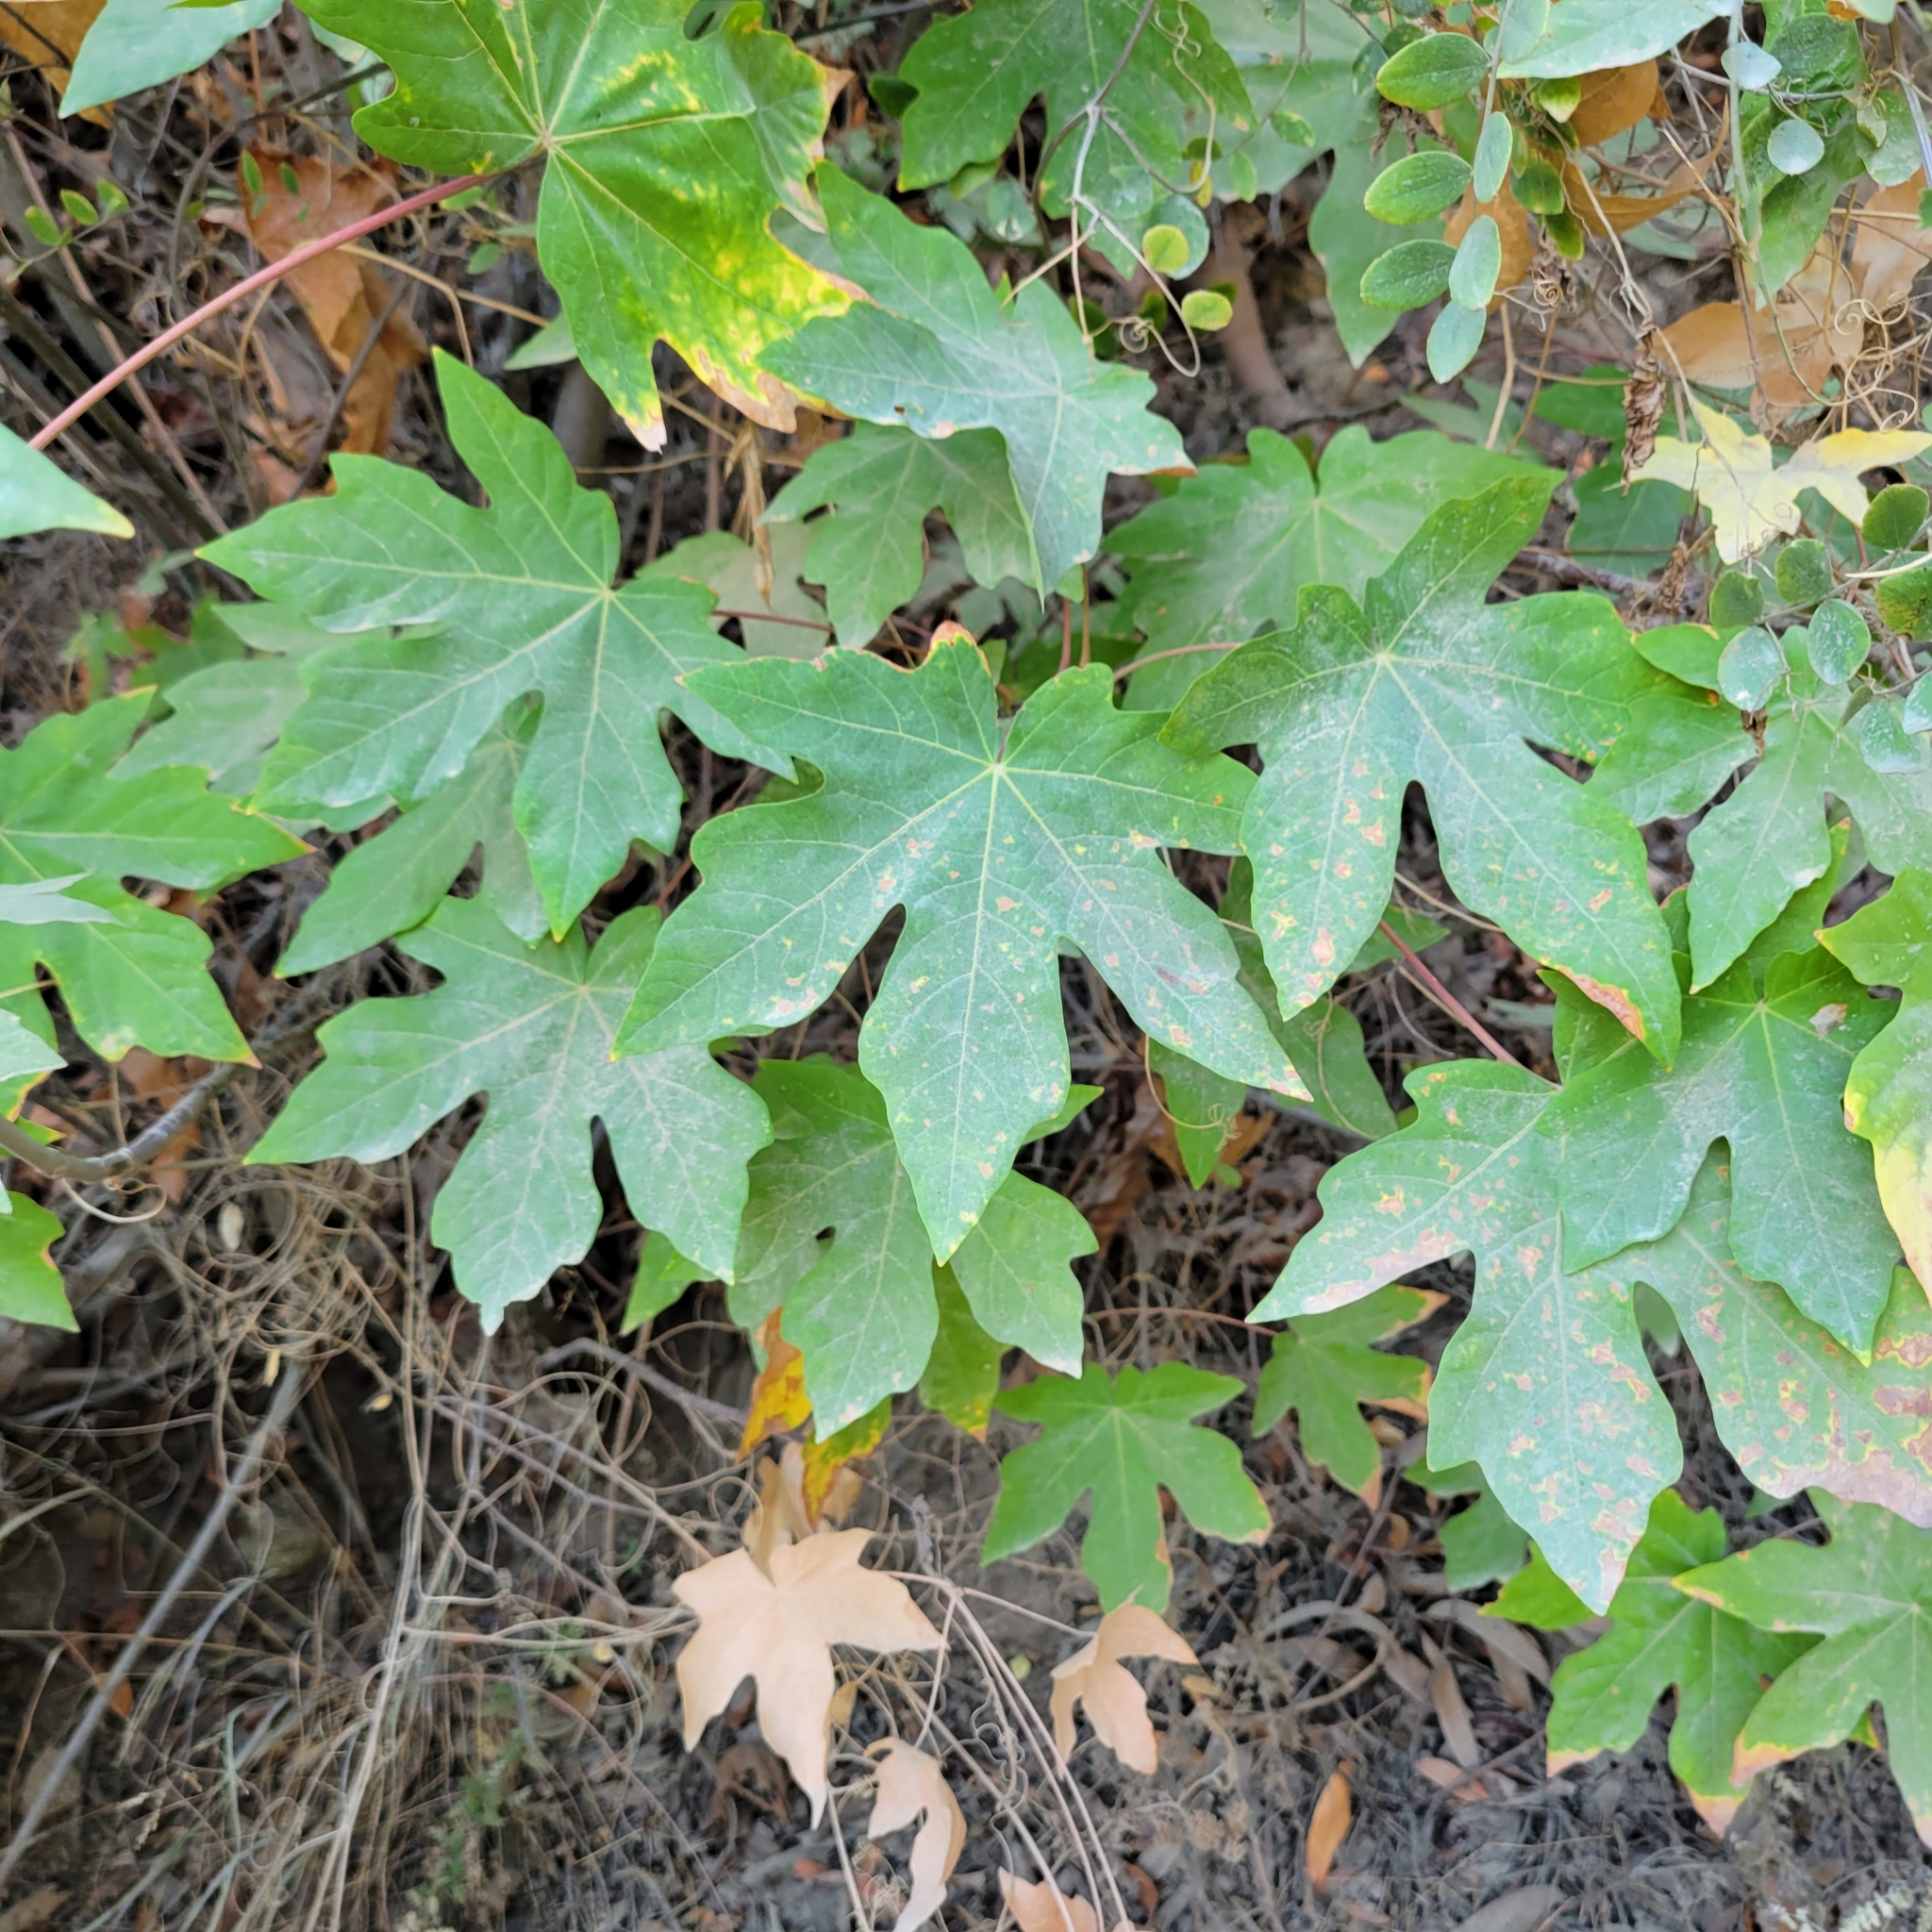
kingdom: Plantae
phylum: Tracheophyta
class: Magnoliopsida
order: Sapindales
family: Sapindaceae
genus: Acer
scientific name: Acer macrophyllum
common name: Oregon maple
